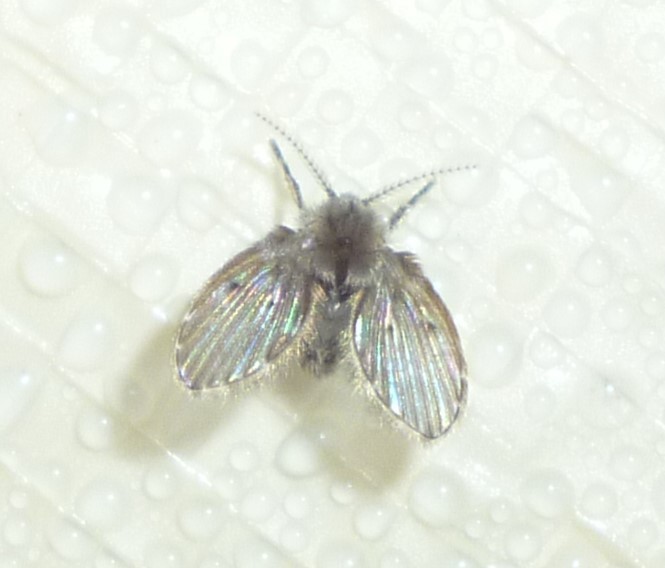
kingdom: Animalia
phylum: Arthropoda
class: Insecta
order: Diptera
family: Psychodidae
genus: Clogmia
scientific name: Clogmia albipunctatus
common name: White-spotted moth fly
